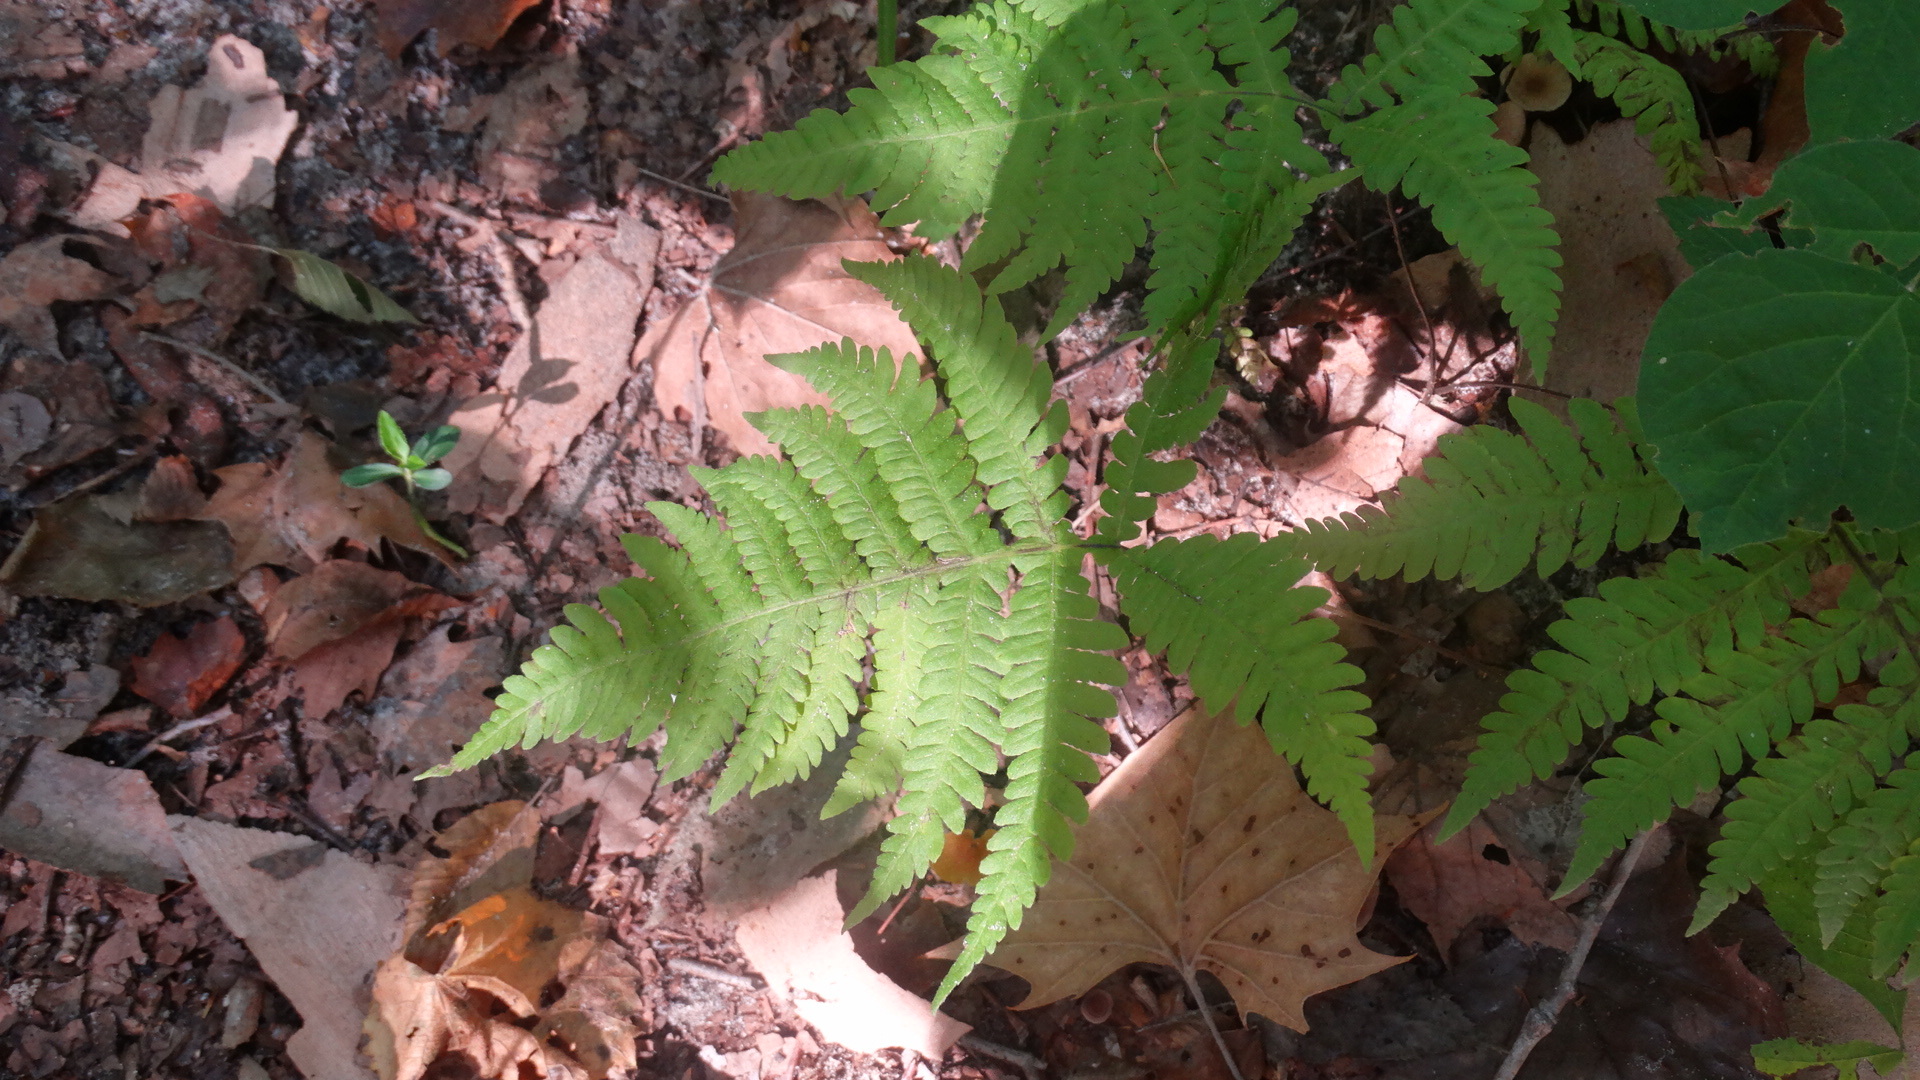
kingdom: Plantae
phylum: Tracheophyta
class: Polypodiopsida
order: Polypodiales
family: Thelypteridaceae
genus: Phegopteris
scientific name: Phegopteris hexagonoptera
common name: Broad beech fern
